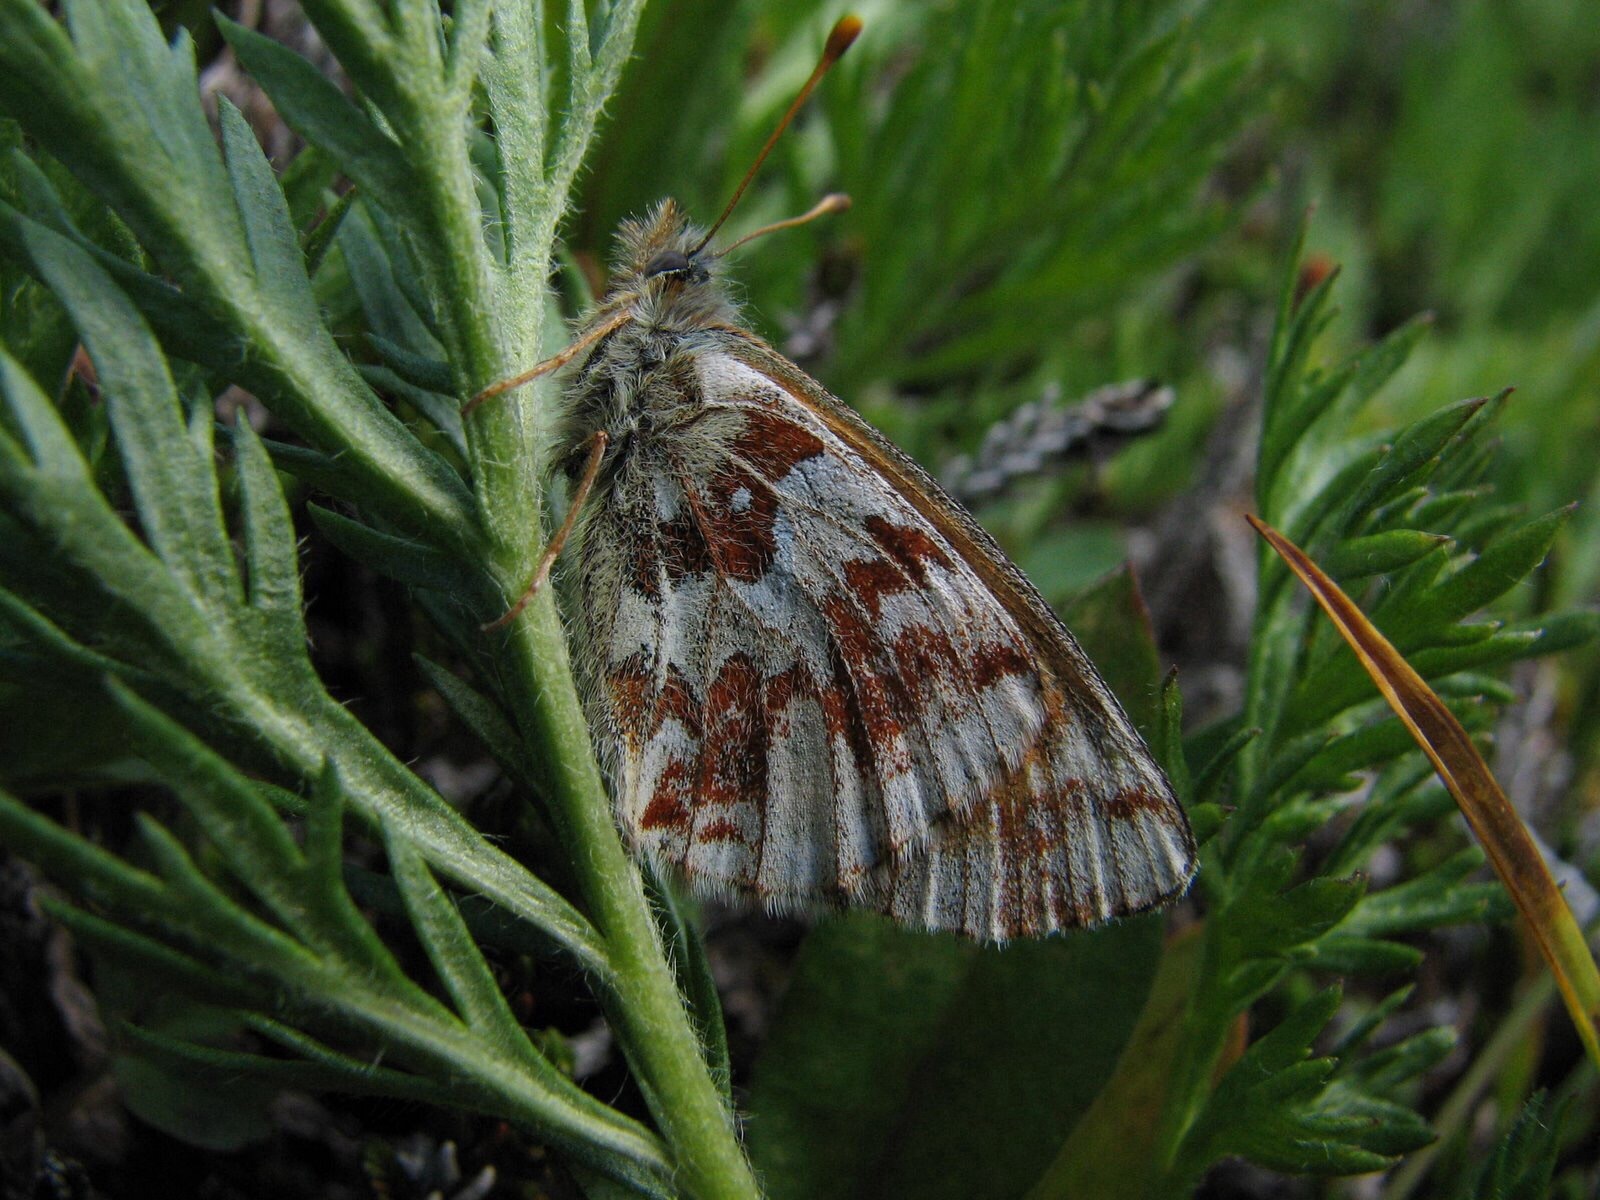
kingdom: Animalia
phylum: Arthropoda
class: Insecta
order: Lepidoptera
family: Nymphalidae
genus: Boloria
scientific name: Boloria alaskensis
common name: Alaskan fritillary
